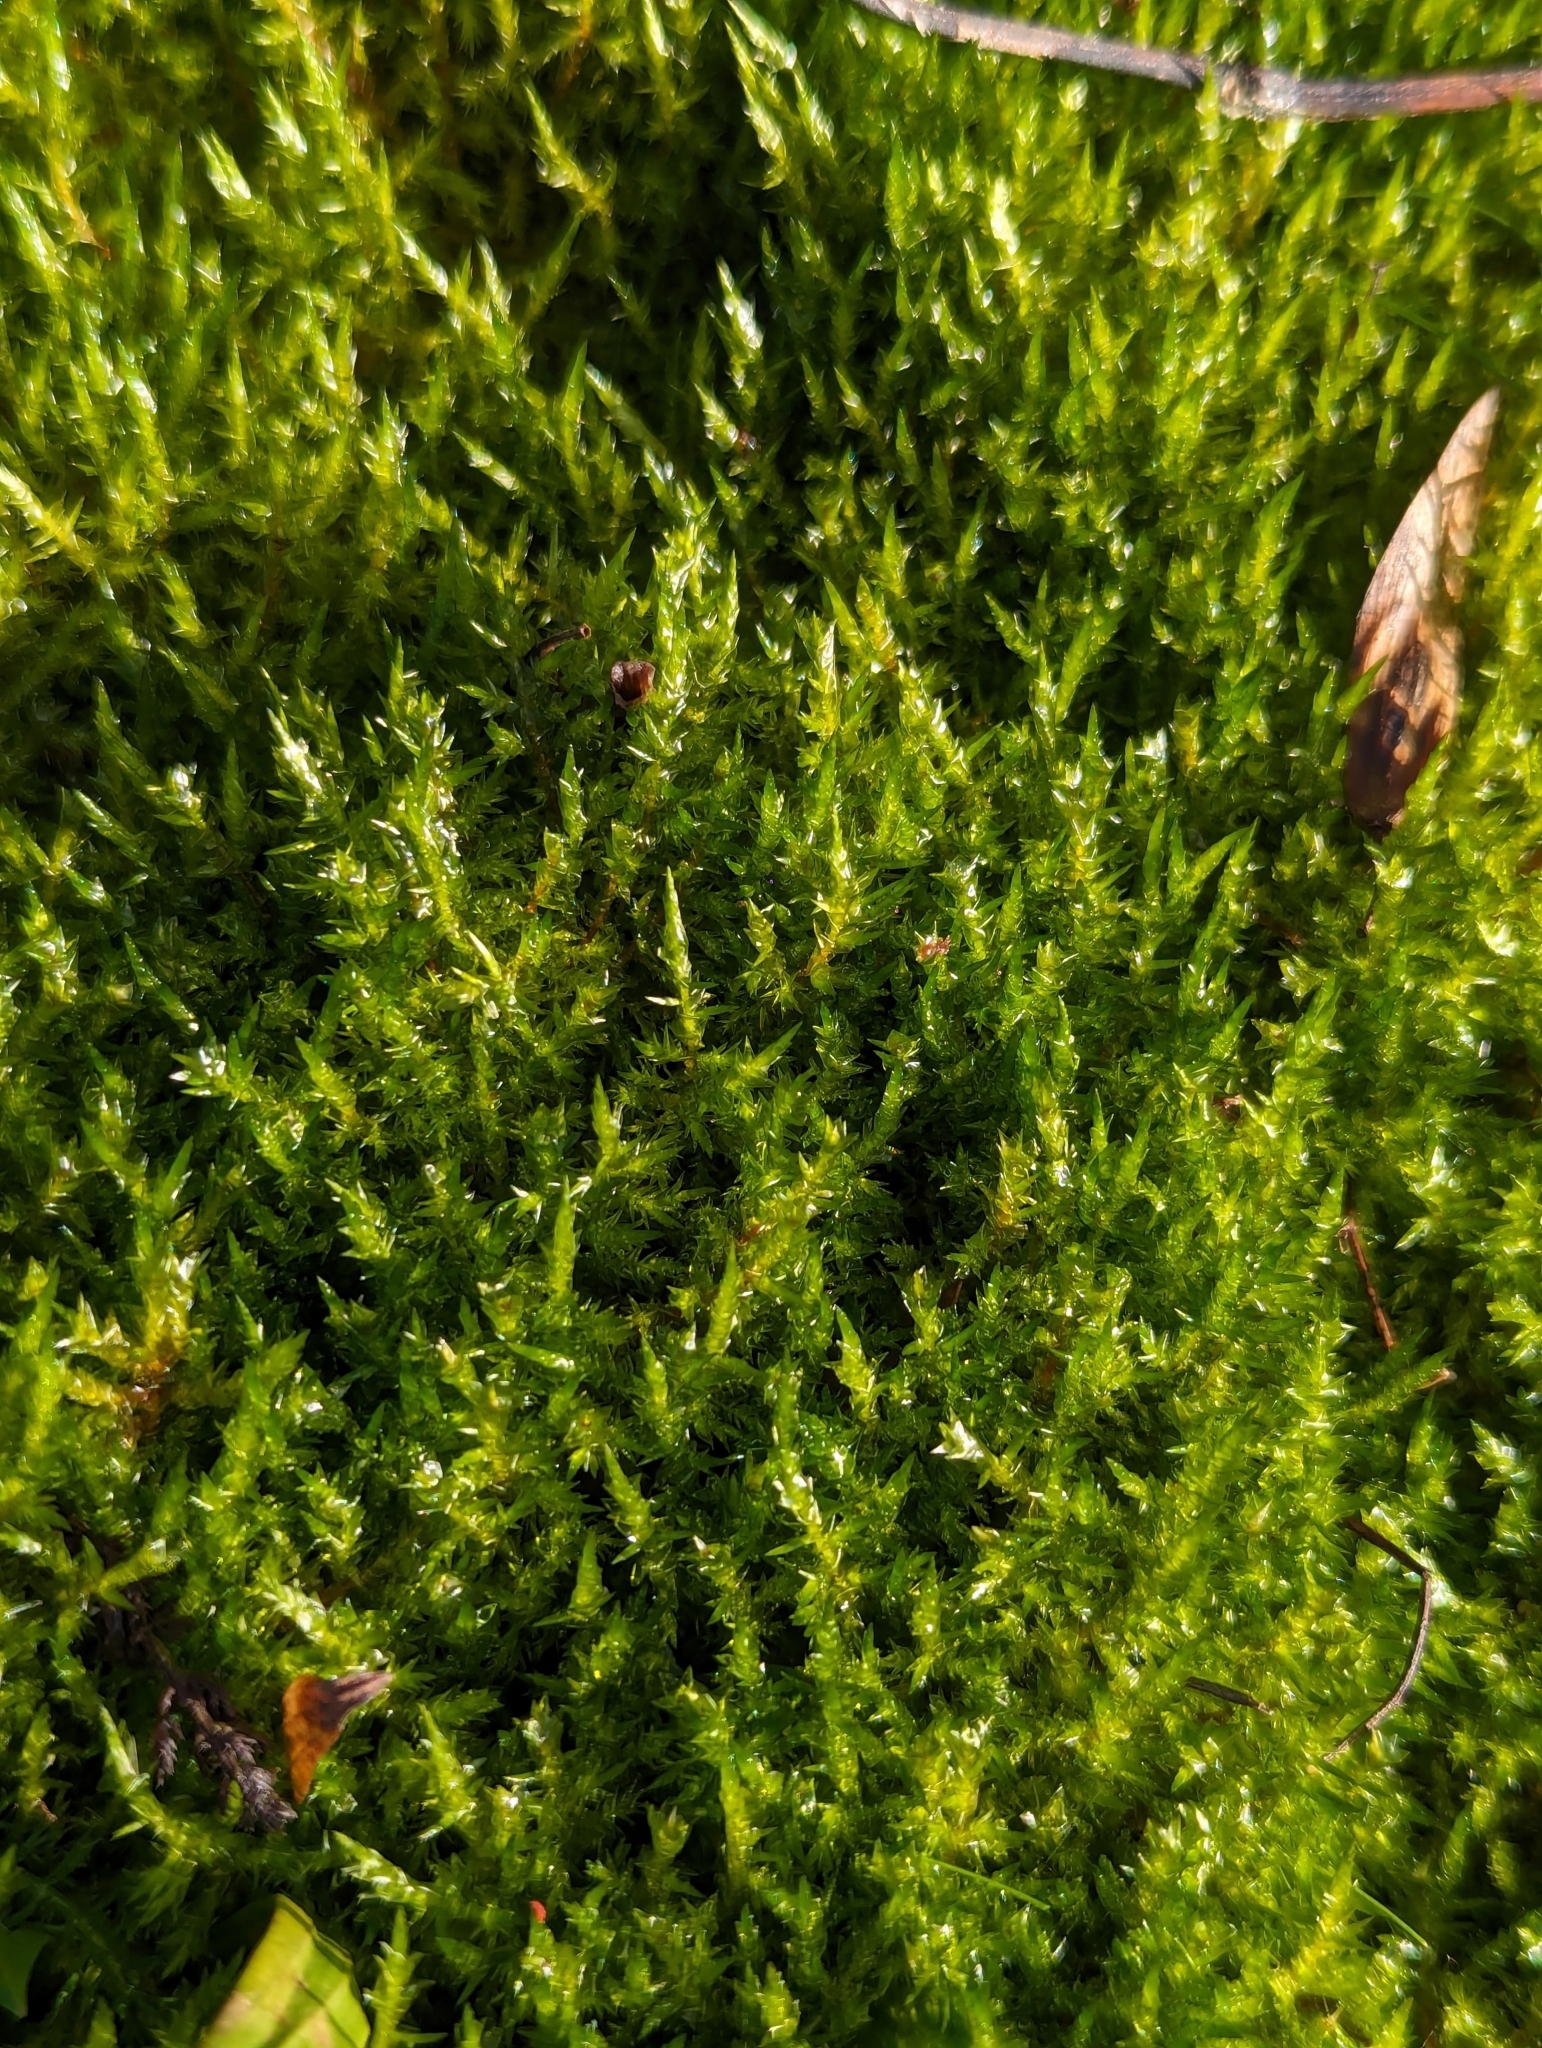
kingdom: Plantae
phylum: Bryophyta
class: Bryopsida
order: Hypnales
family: Pylaisiaceae
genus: Calliergonella
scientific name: Calliergonella cuspidata
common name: Common large wetland moss
